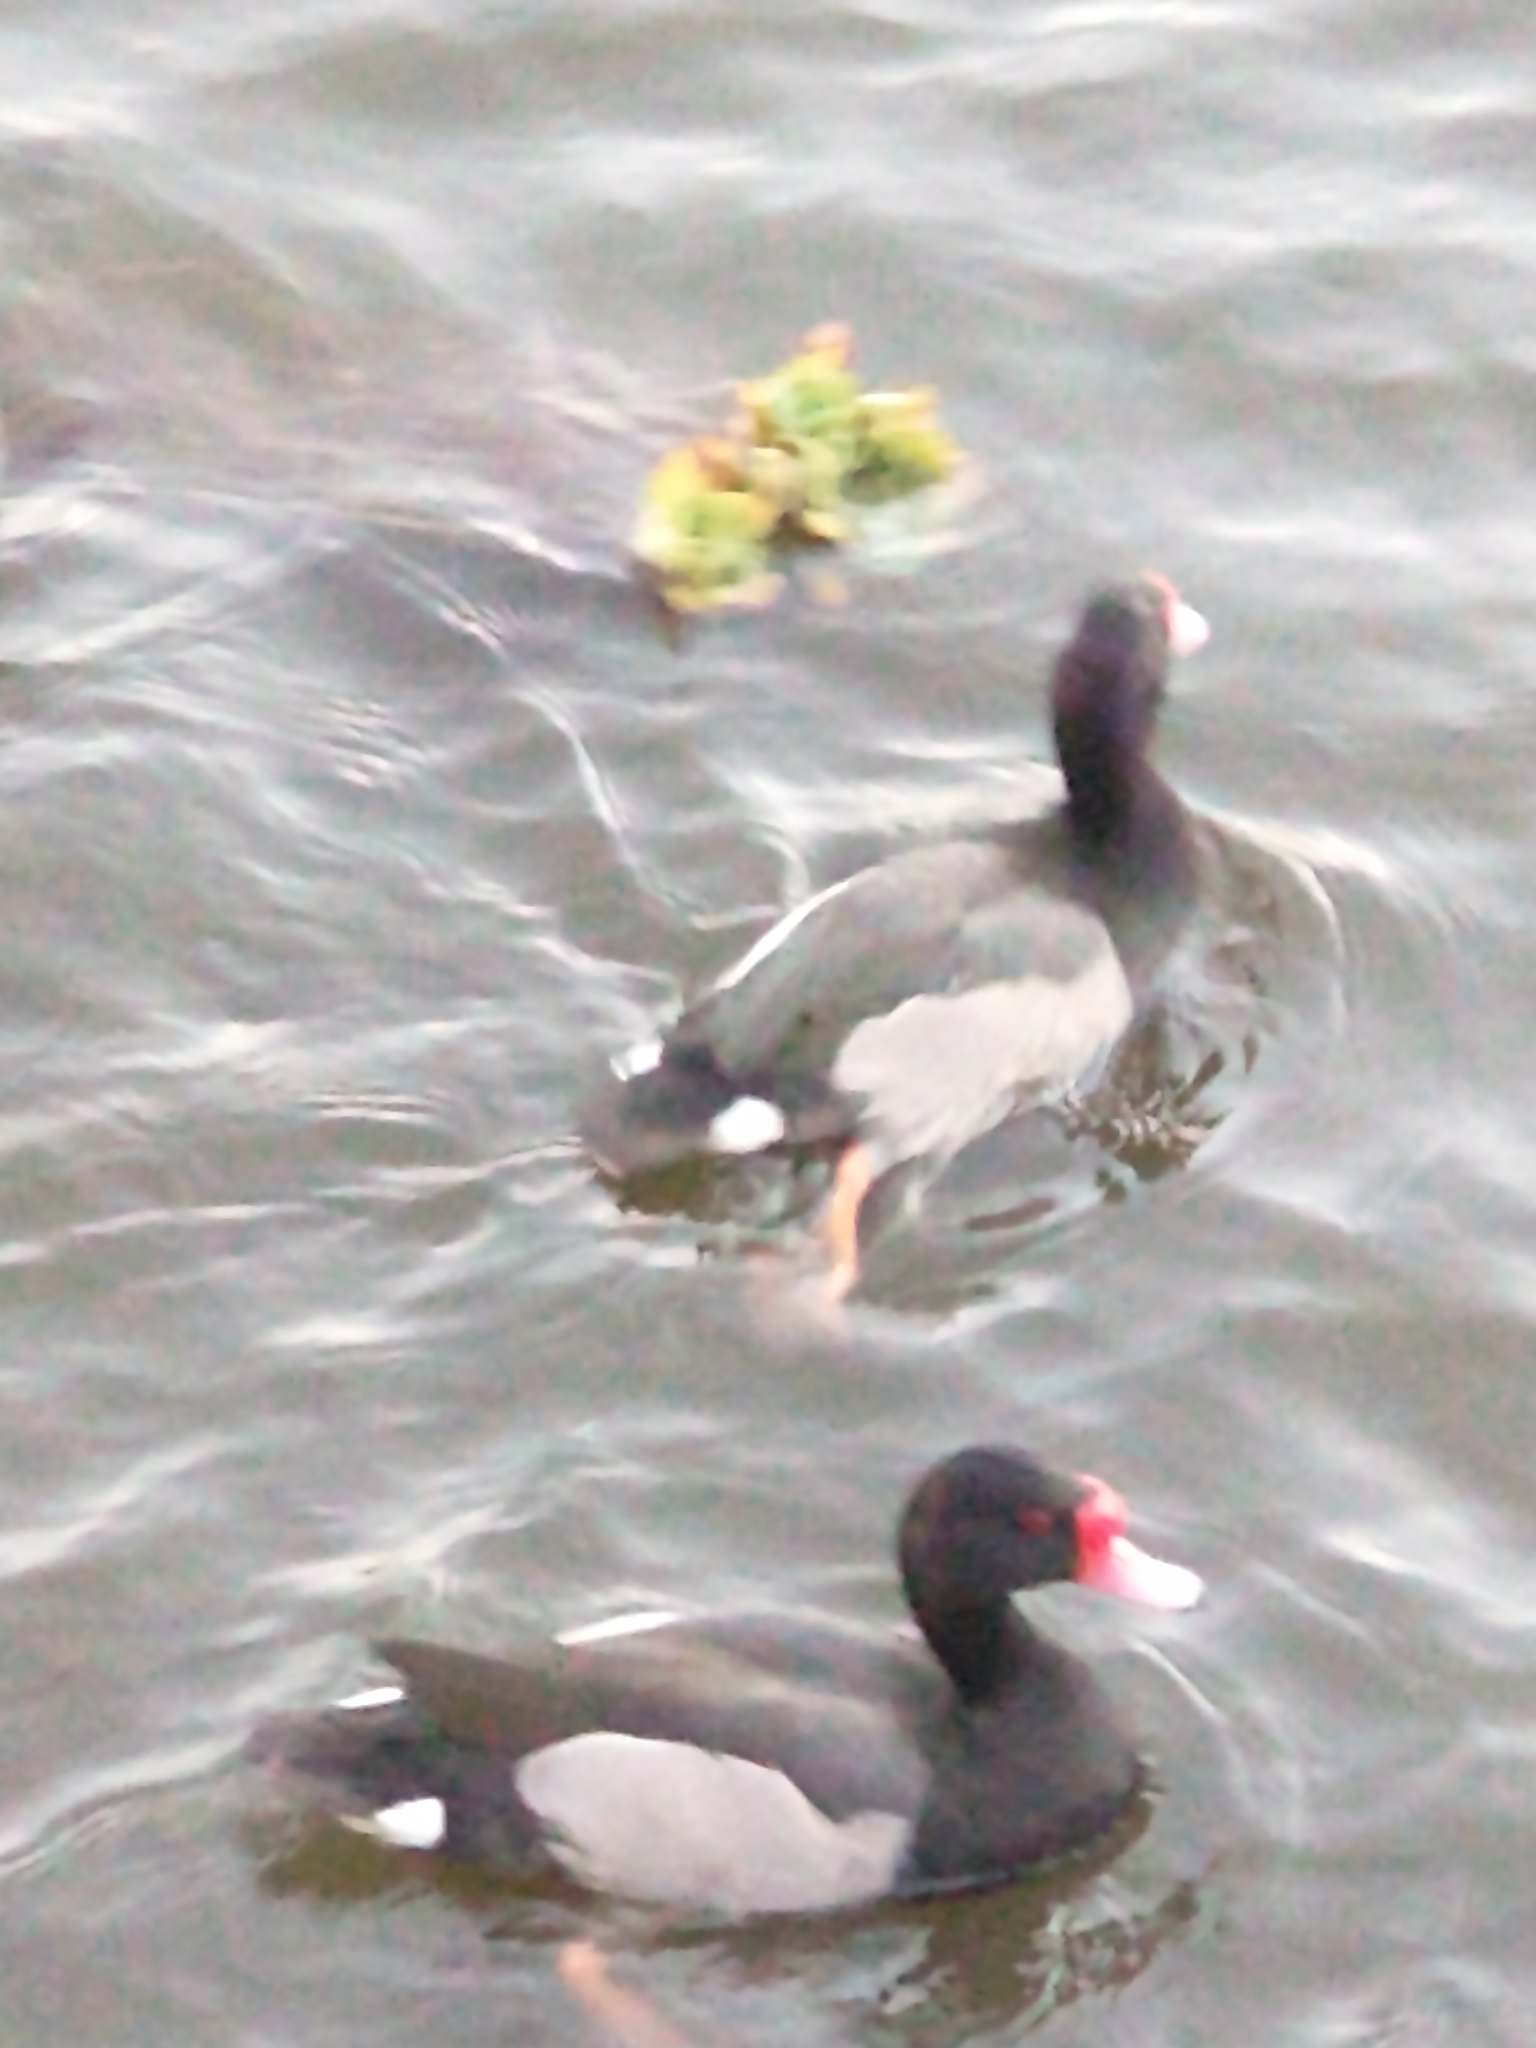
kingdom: Animalia
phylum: Chordata
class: Aves
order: Anseriformes
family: Anatidae
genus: Netta
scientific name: Netta peposaca
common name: Rosy-billed pochard
